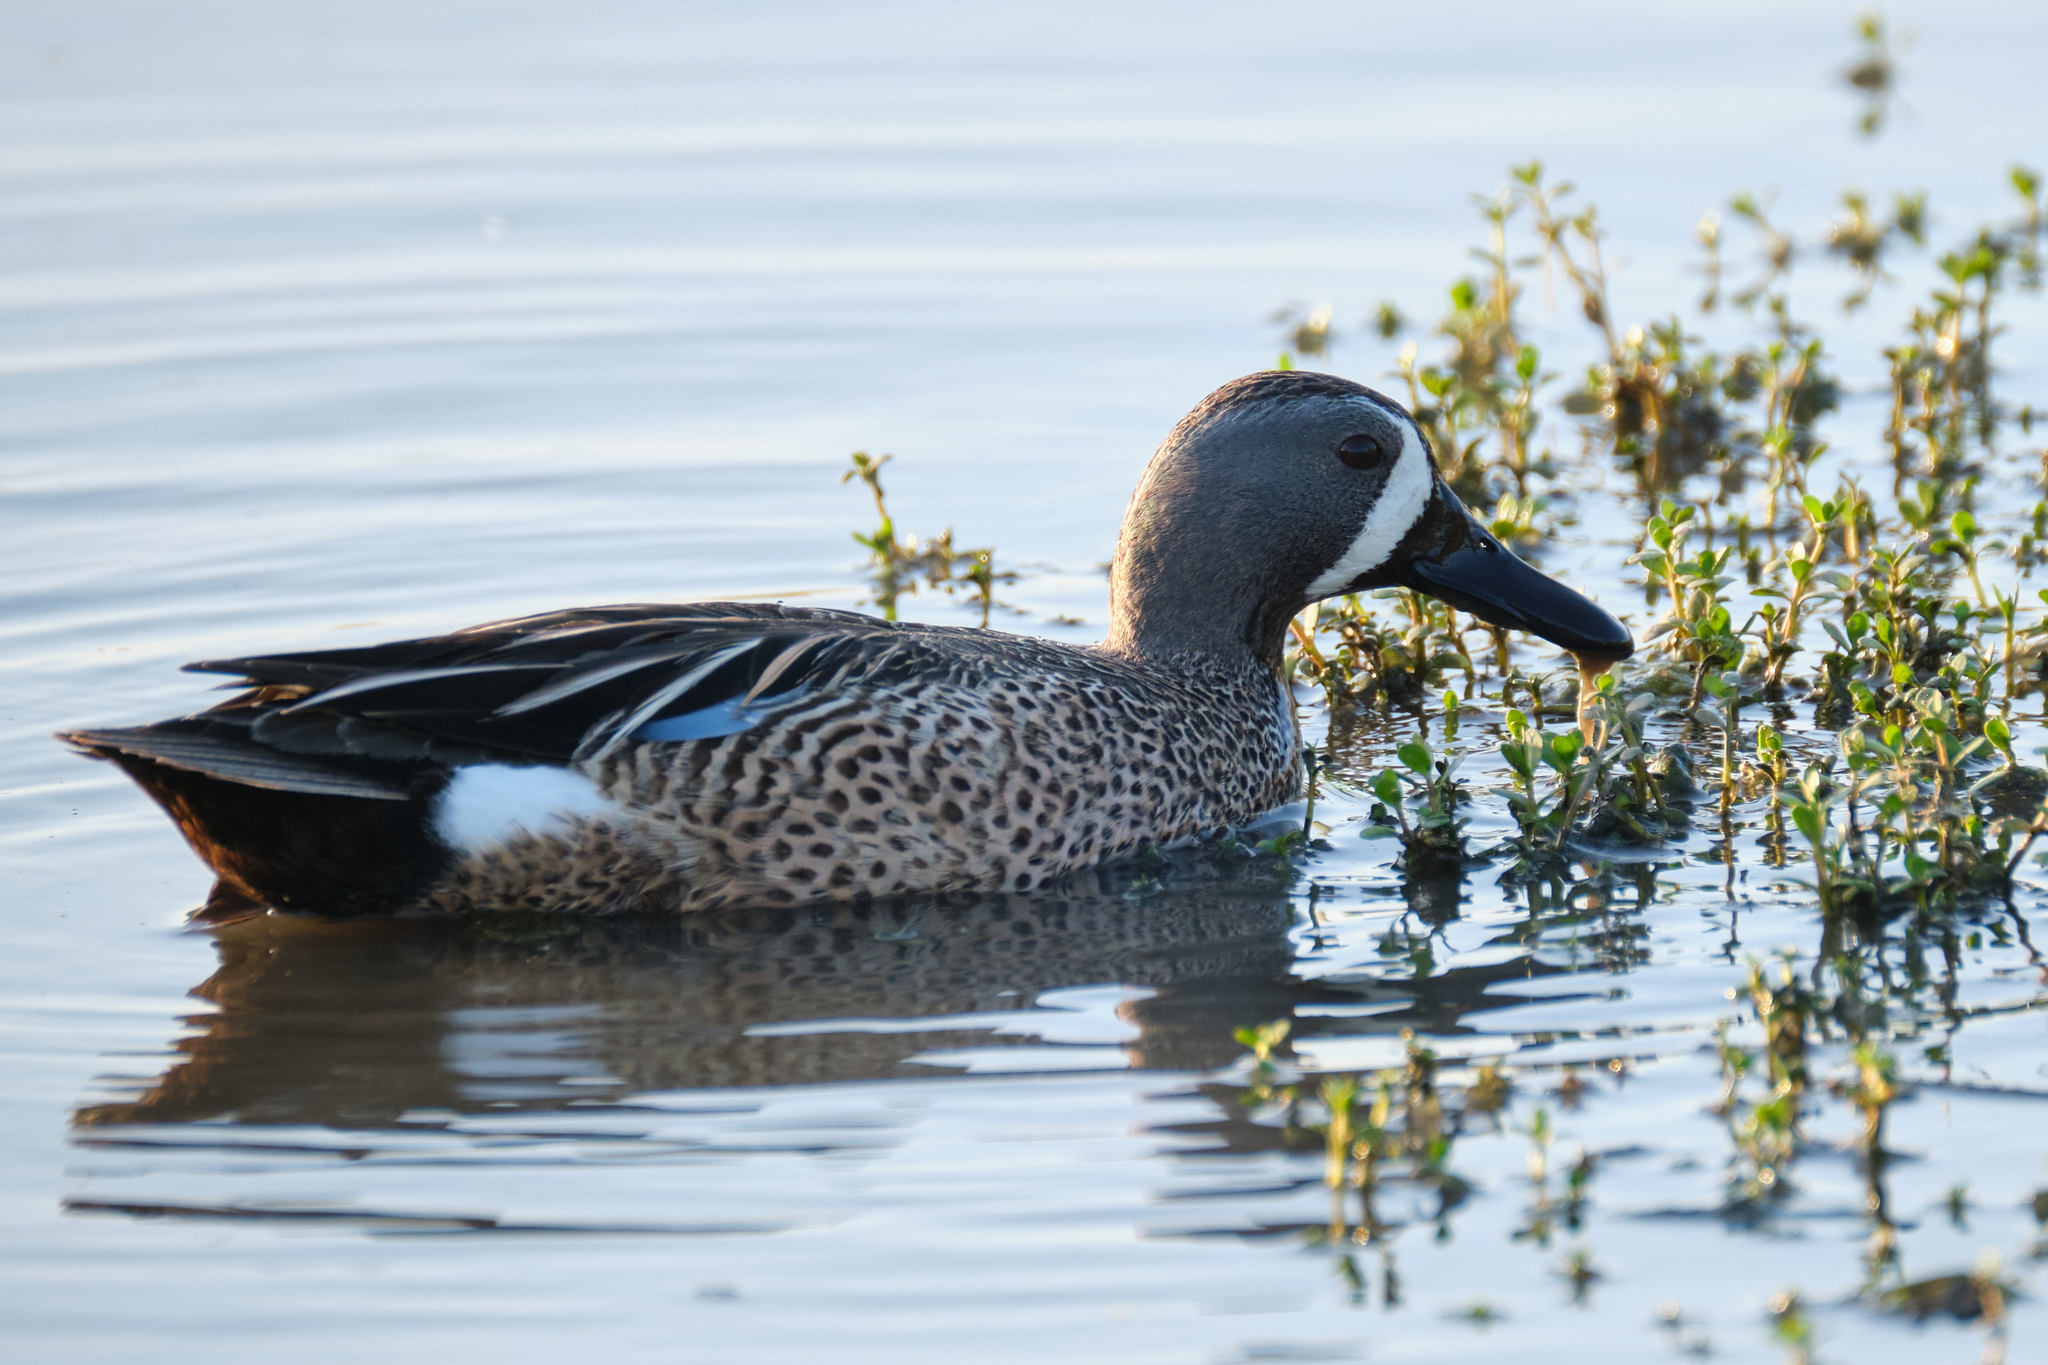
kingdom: Animalia
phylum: Chordata
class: Aves
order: Anseriformes
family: Anatidae
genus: Spatula
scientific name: Spatula discors
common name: Blue-winged teal
